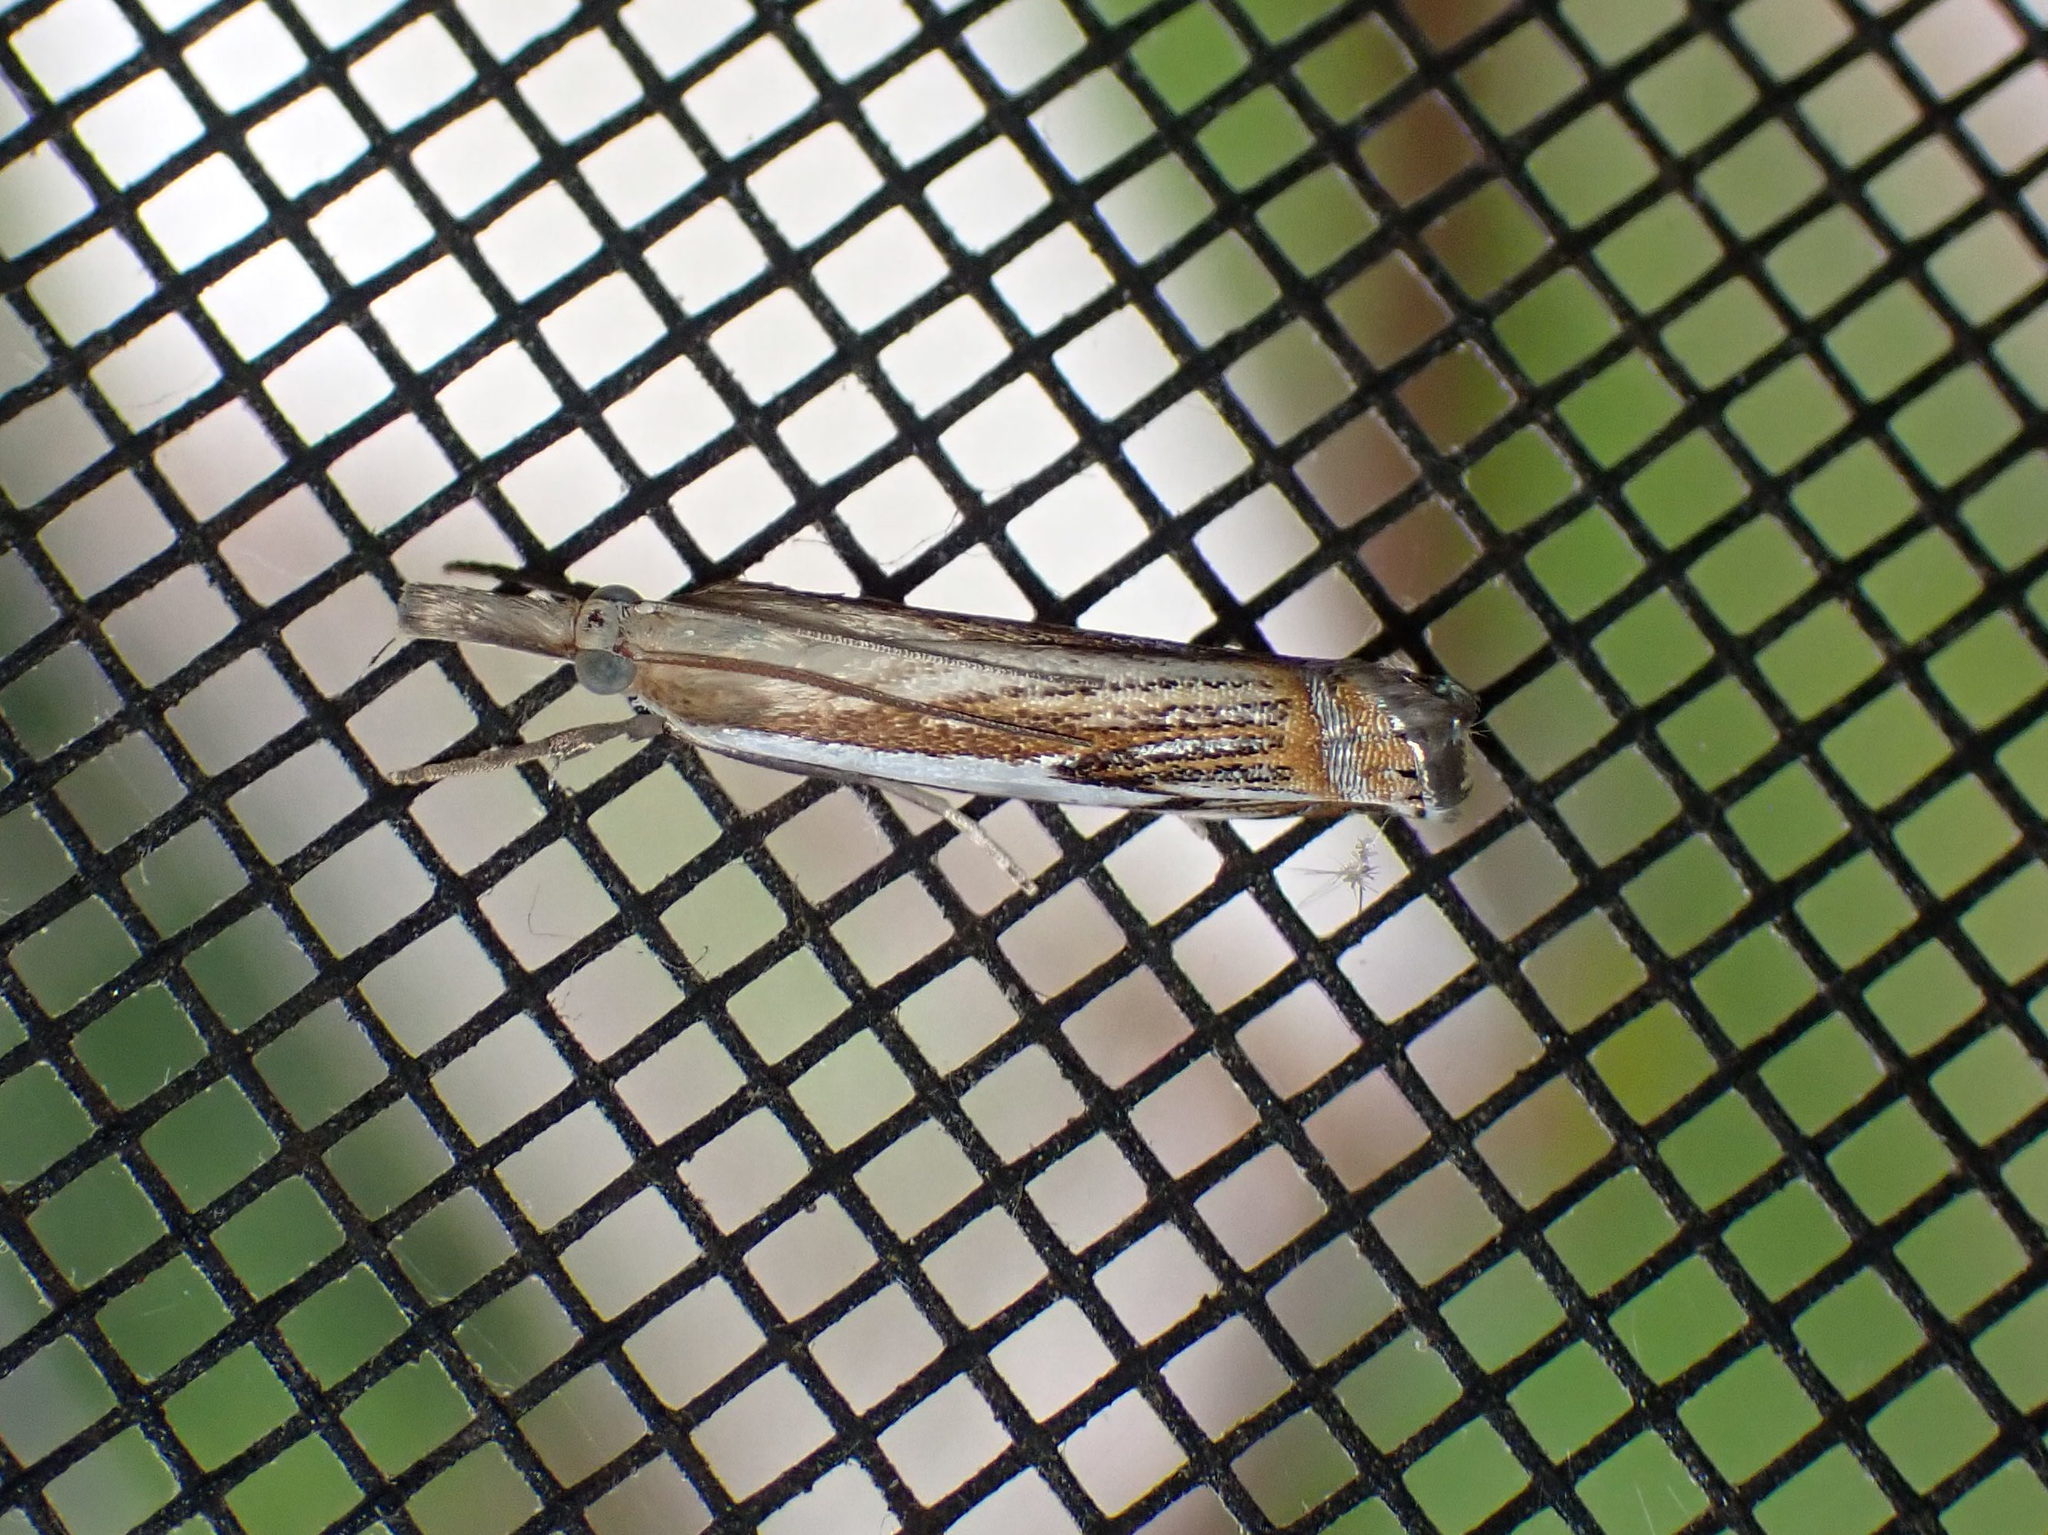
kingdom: Animalia
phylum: Arthropoda
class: Insecta
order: Lepidoptera
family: Crambidae
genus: Crambus
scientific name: Crambus agitatellus
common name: Double-banded grass-veneer
